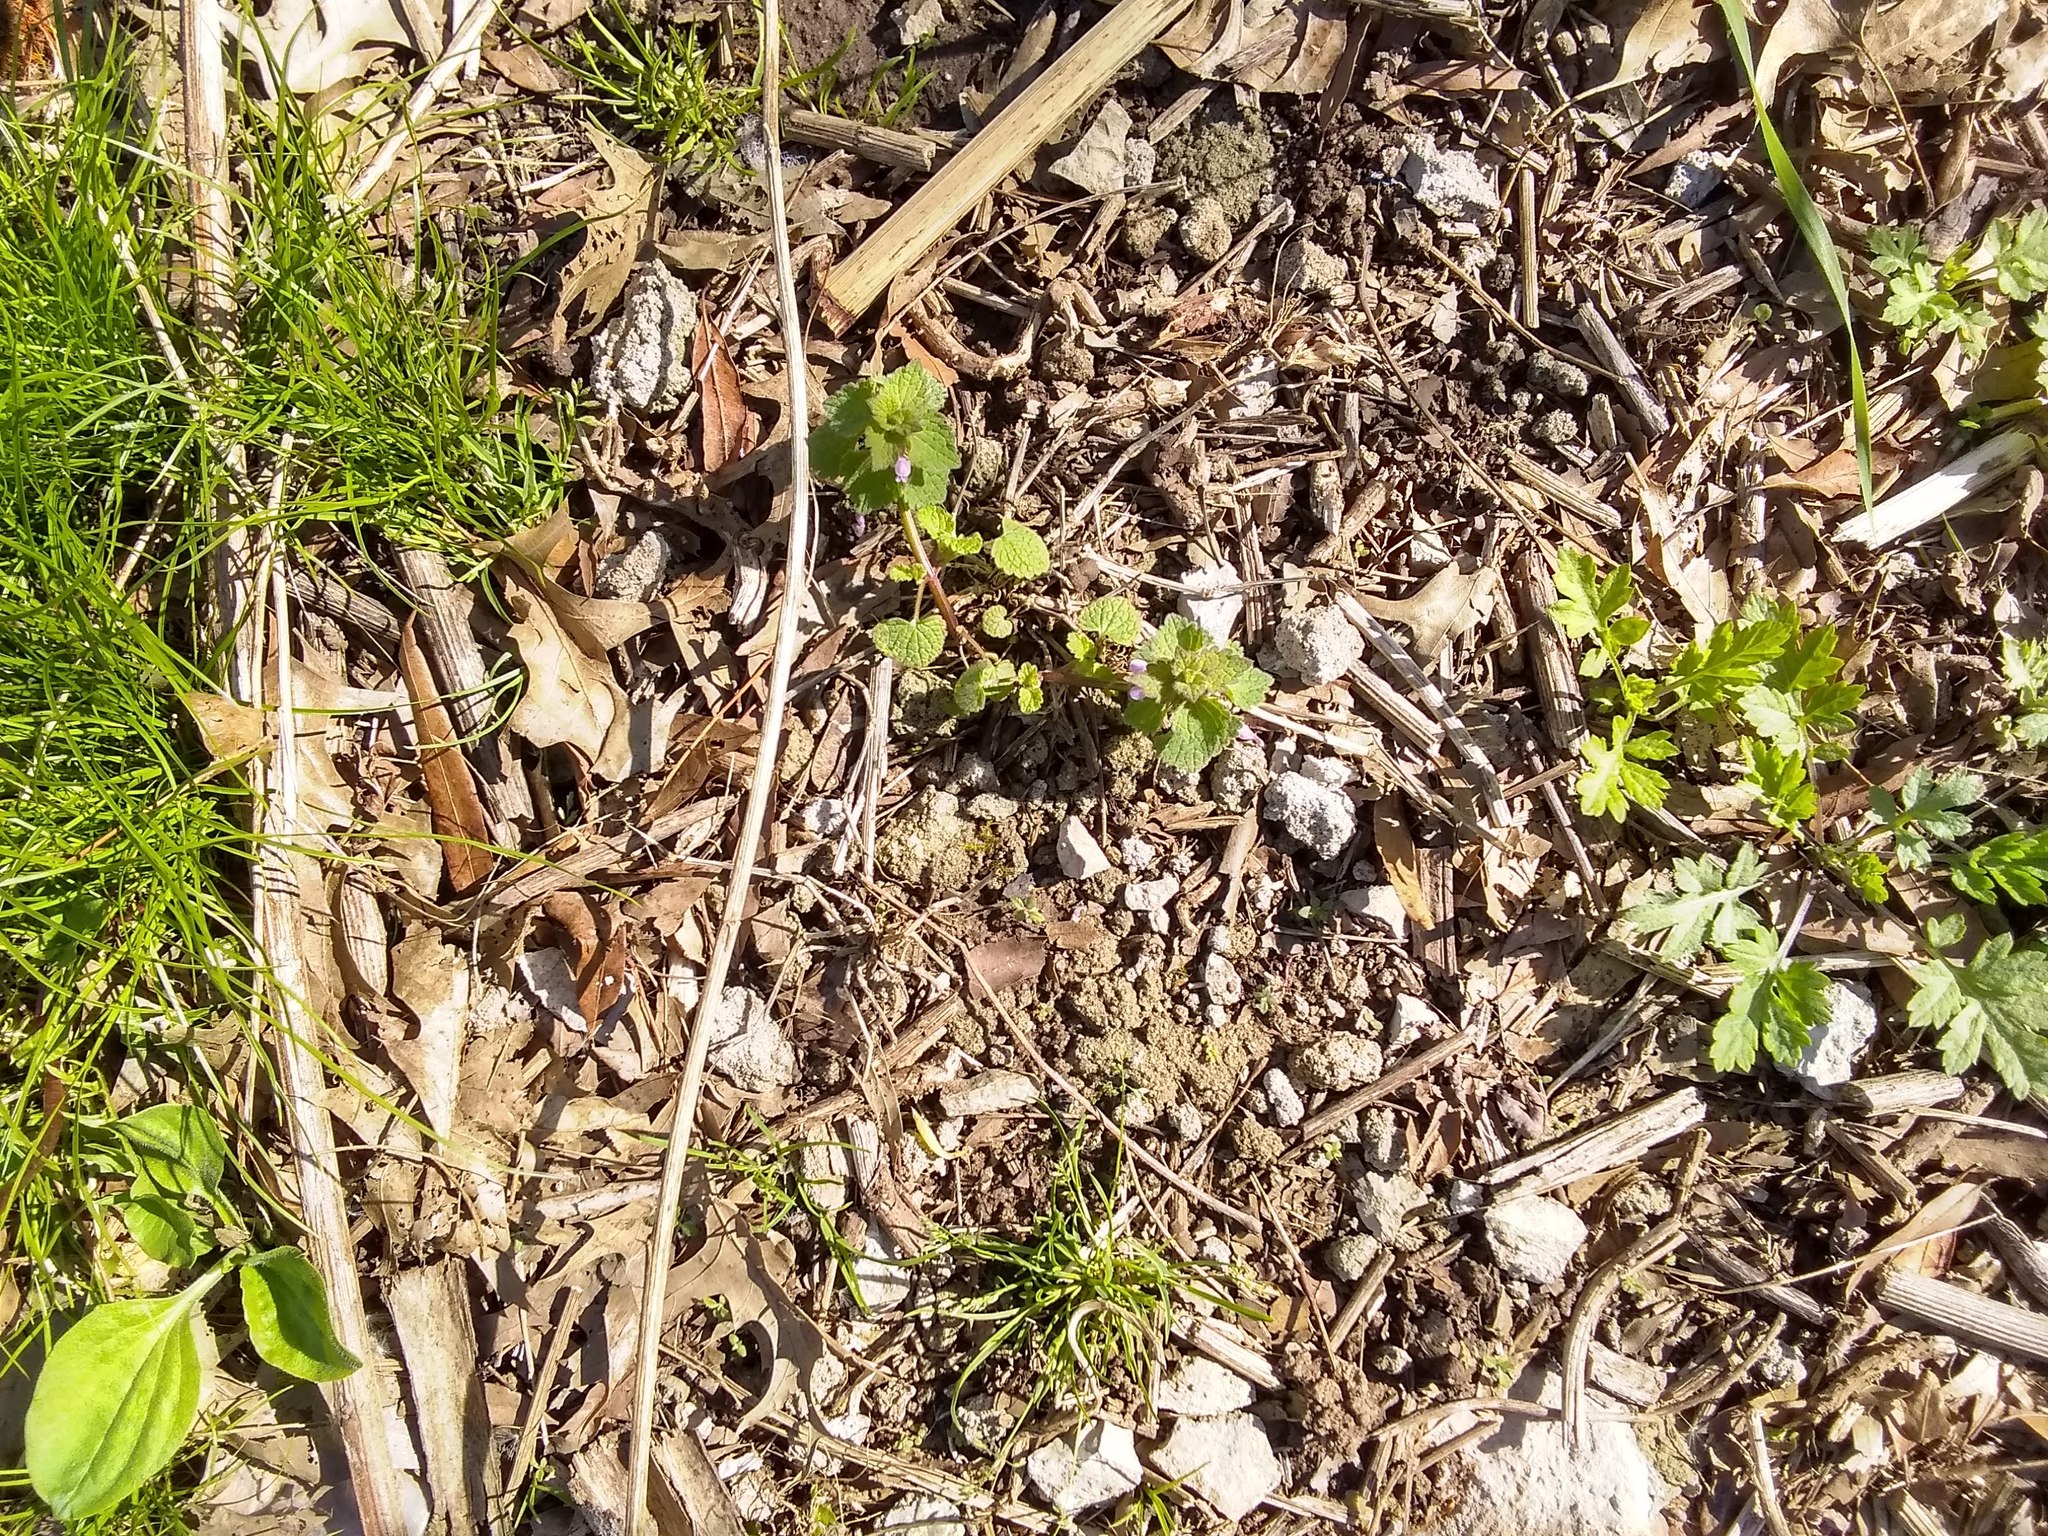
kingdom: Plantae
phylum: Tracheophyta
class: Magnoliopsida
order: Lamiales
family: Lamiaceae
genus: Lamium
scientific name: Lamium purpureum
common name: Red dead-nettle
